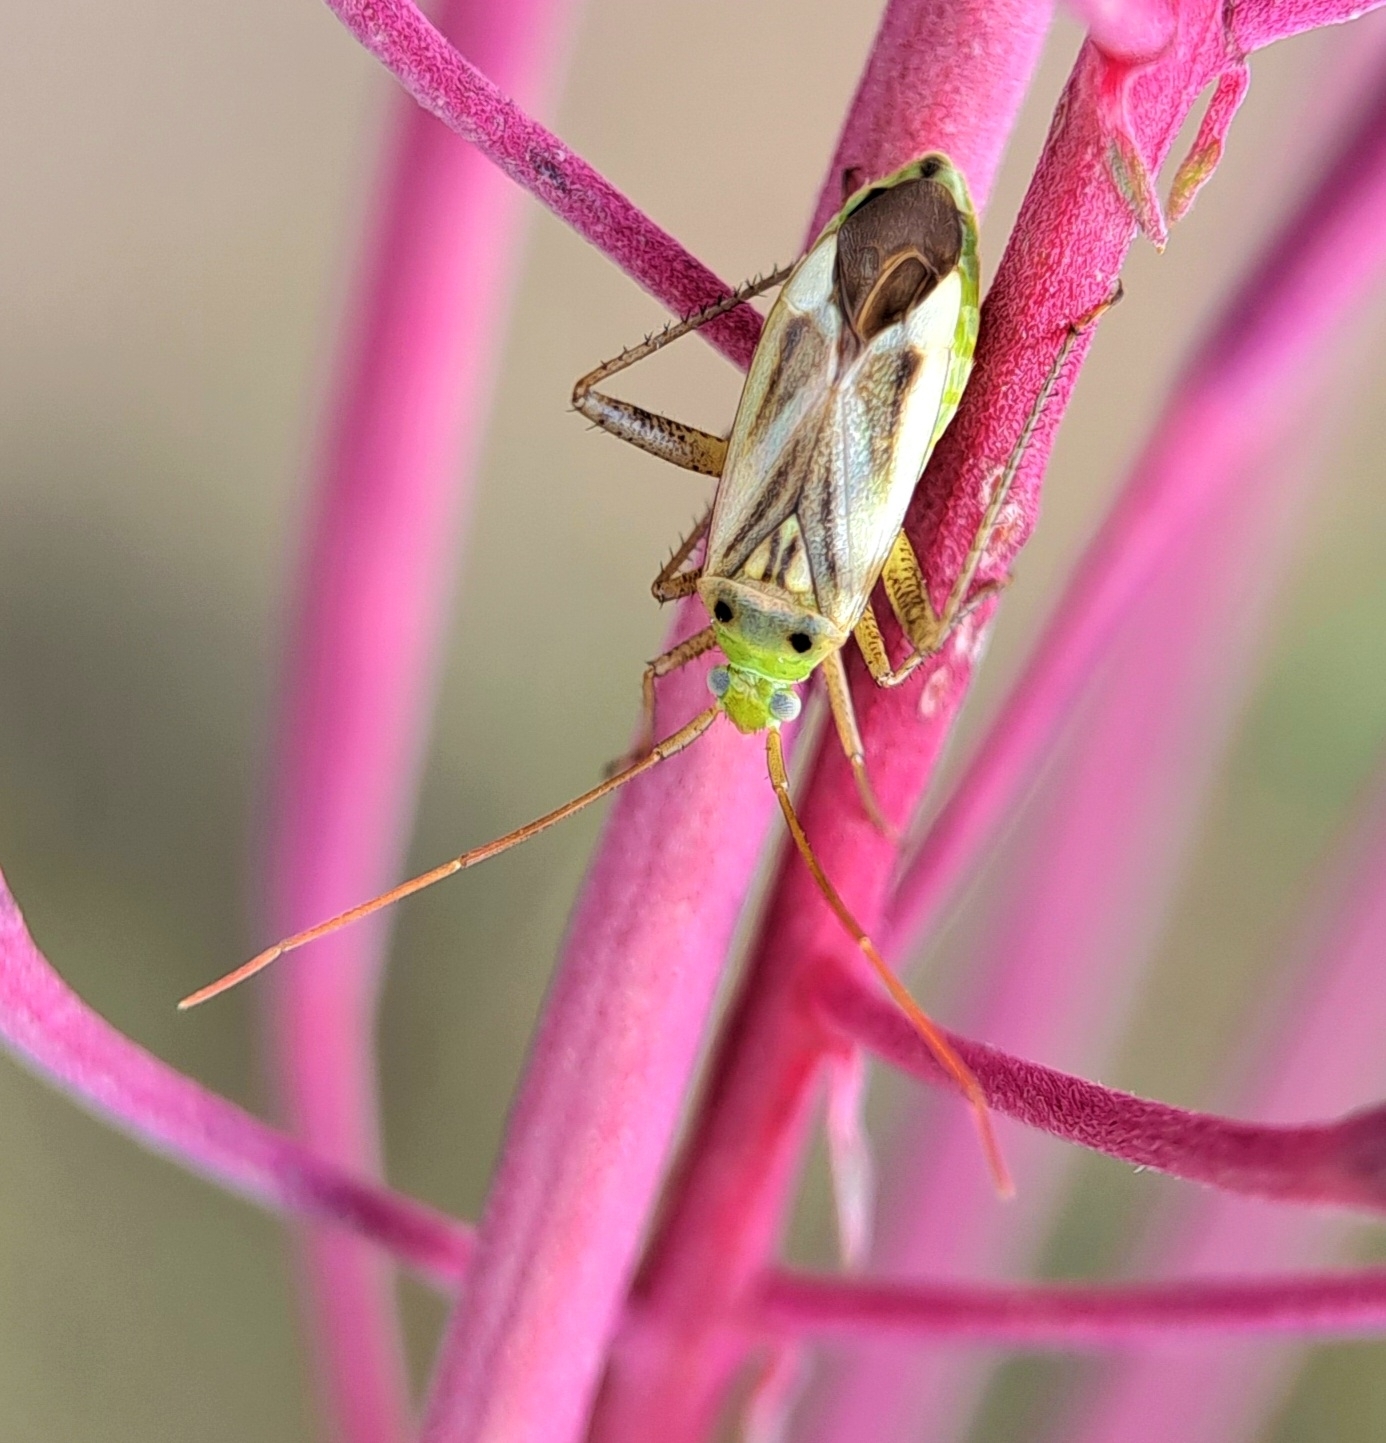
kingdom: Animalia
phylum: Arthropoda
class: Insecta
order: Hemiptera
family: Miridae
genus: Adelphocoris
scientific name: Adelphocoris lineolatus
